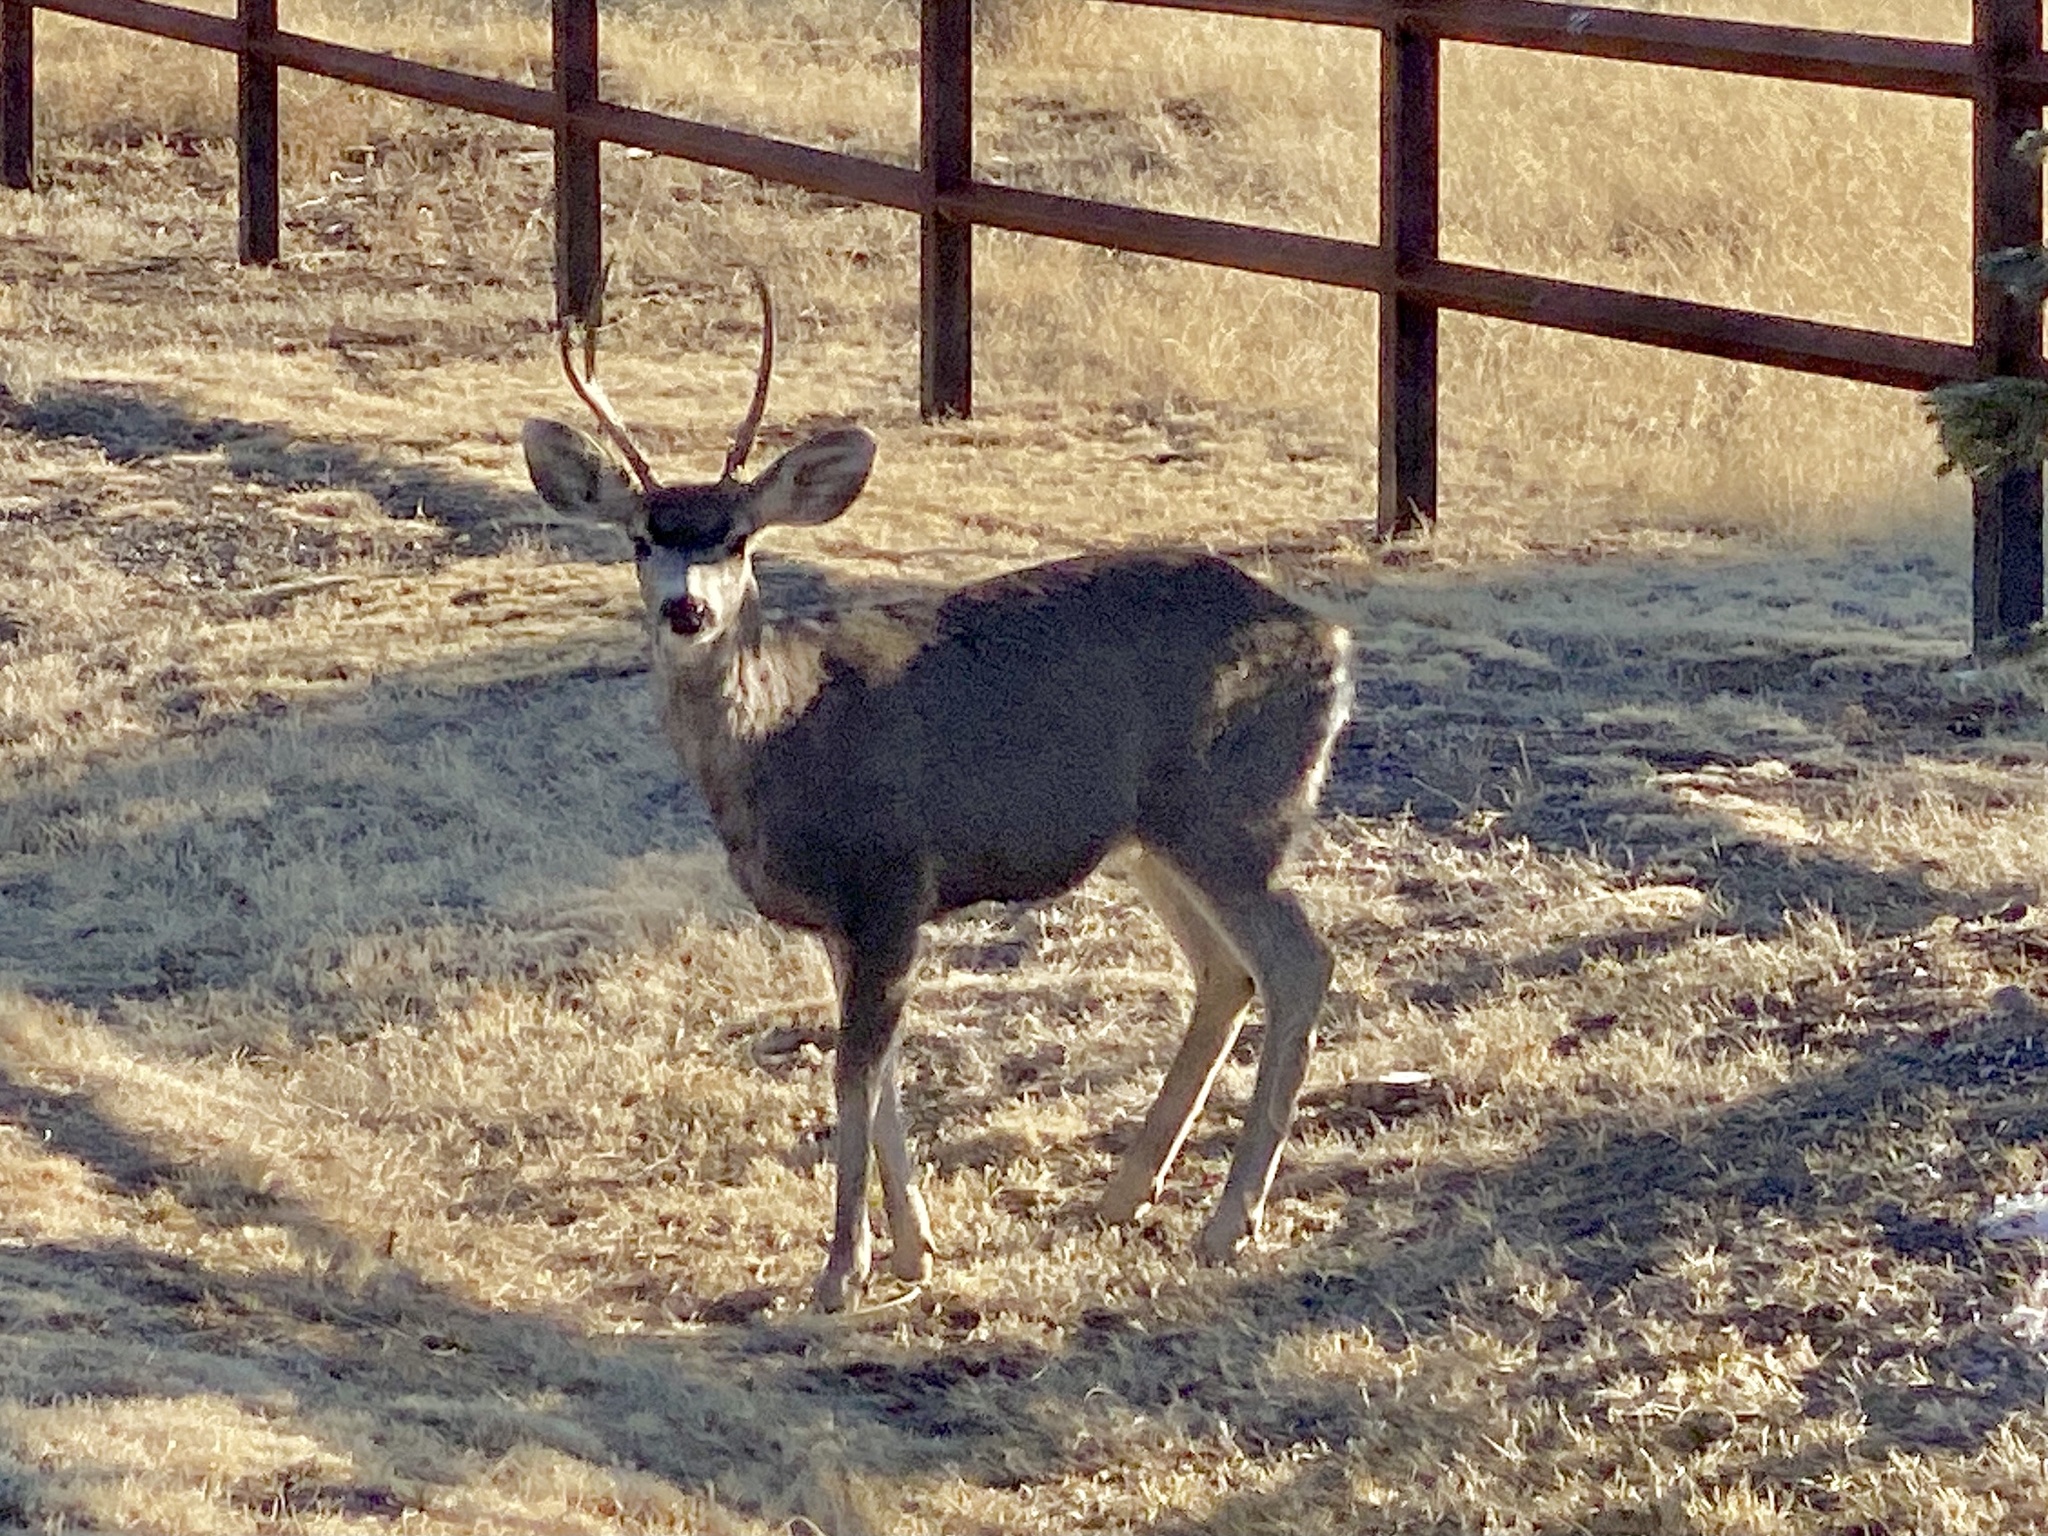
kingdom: Animalia
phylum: Chordata
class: Mammalia
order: Artiodactyla
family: Cervidae
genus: Odocoileus
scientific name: Odocoileus hemionus
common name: Mule deer
